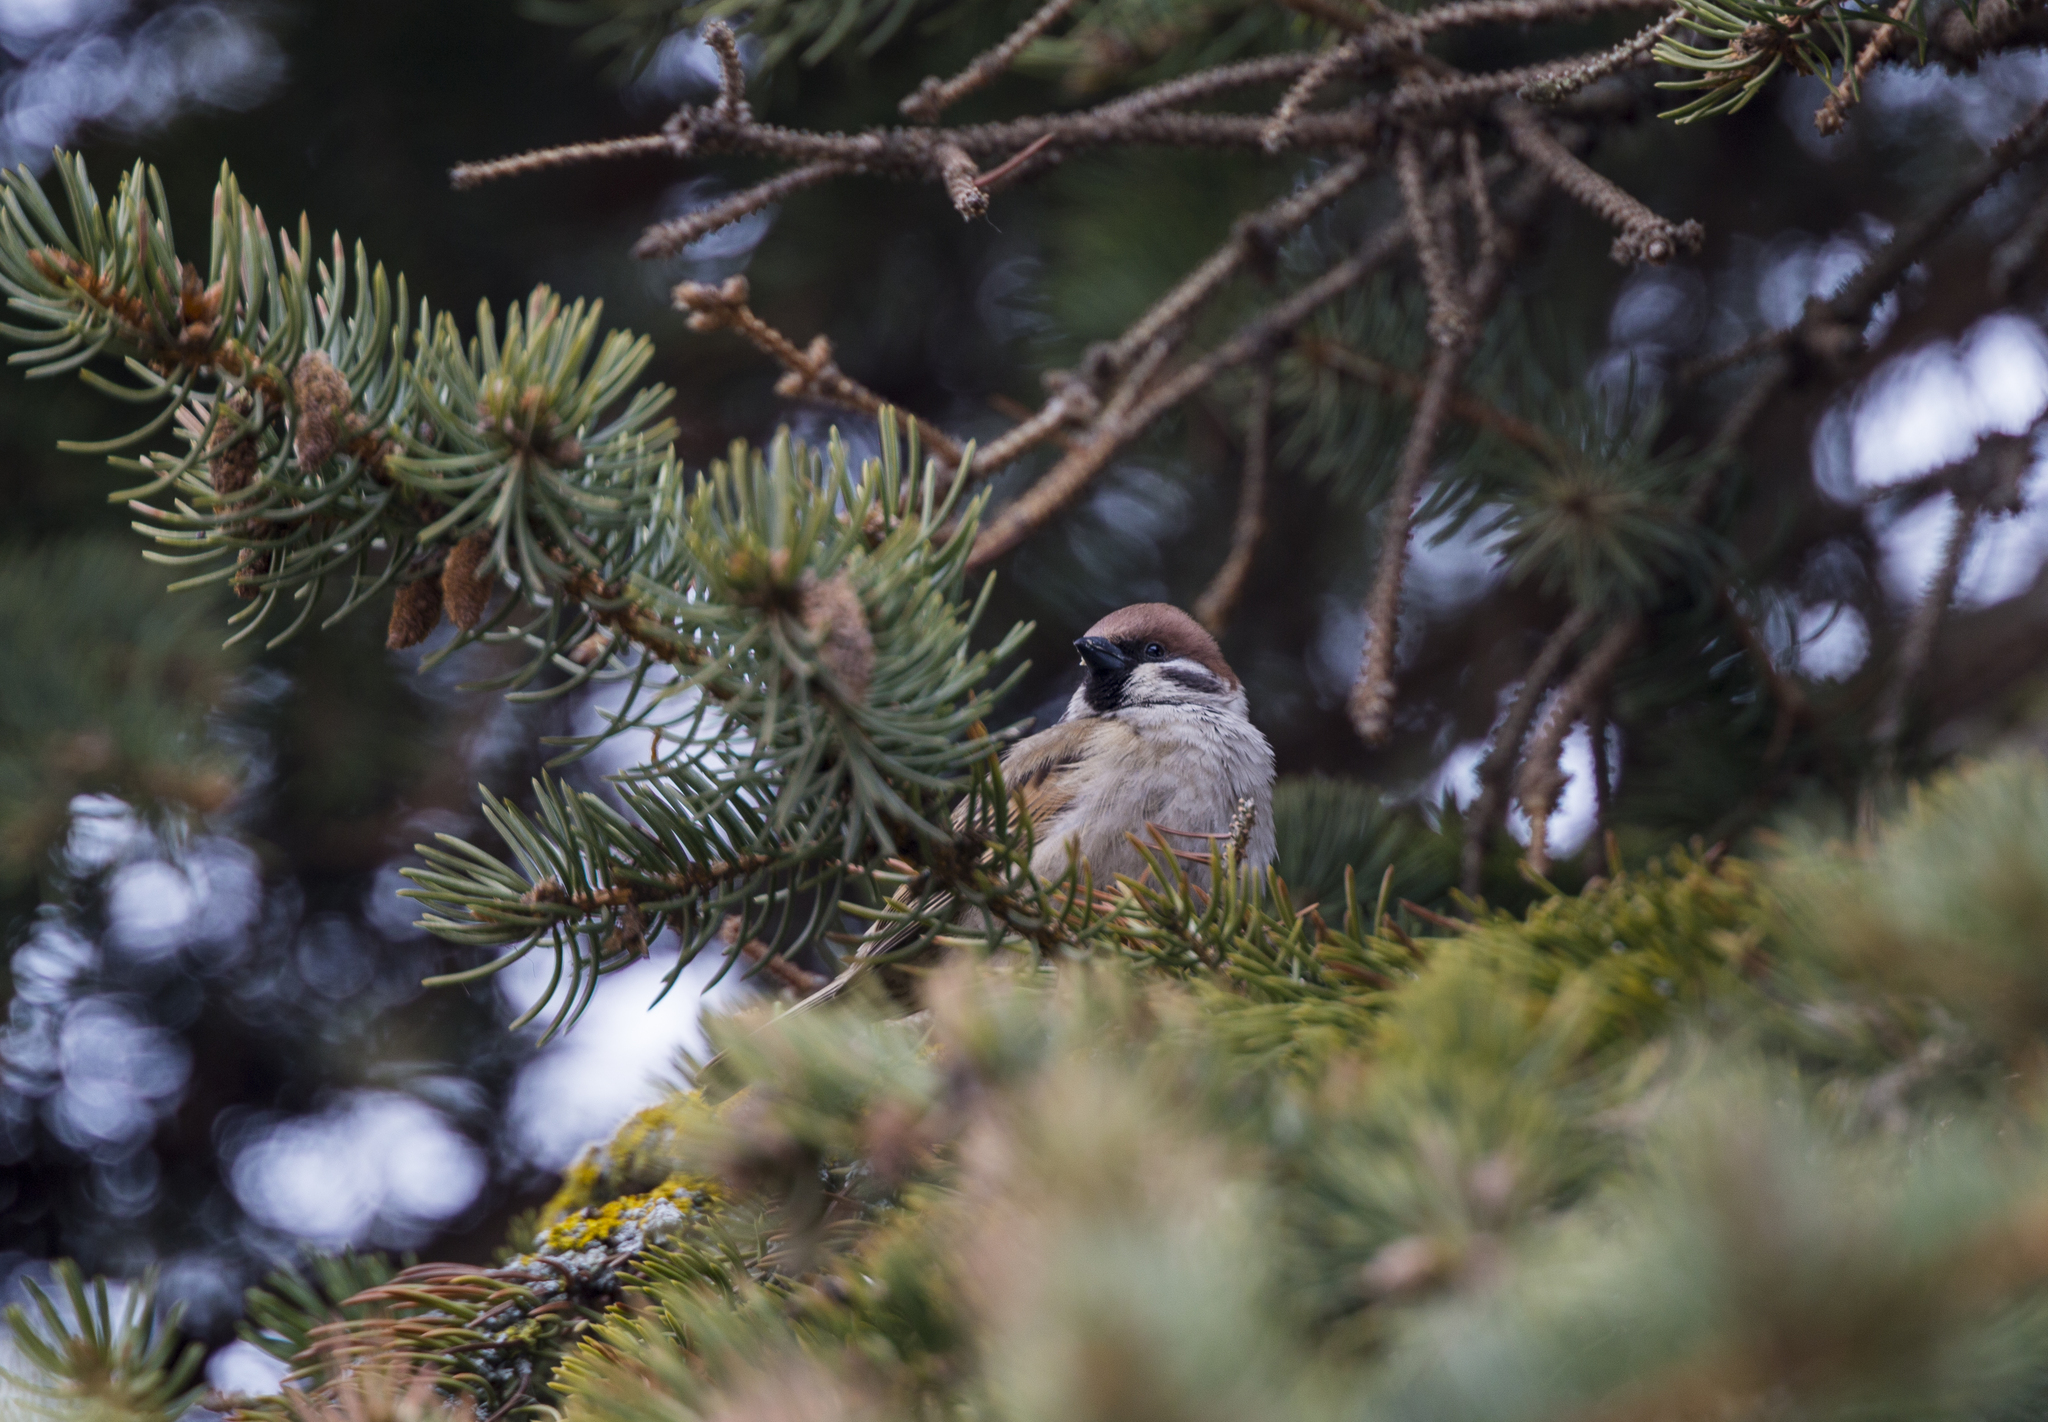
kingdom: Animalia
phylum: Chordata
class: Aves
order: Passeriformes
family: Passeridae
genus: Passer
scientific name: Passer montanus
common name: Eurasian tree sparrow
